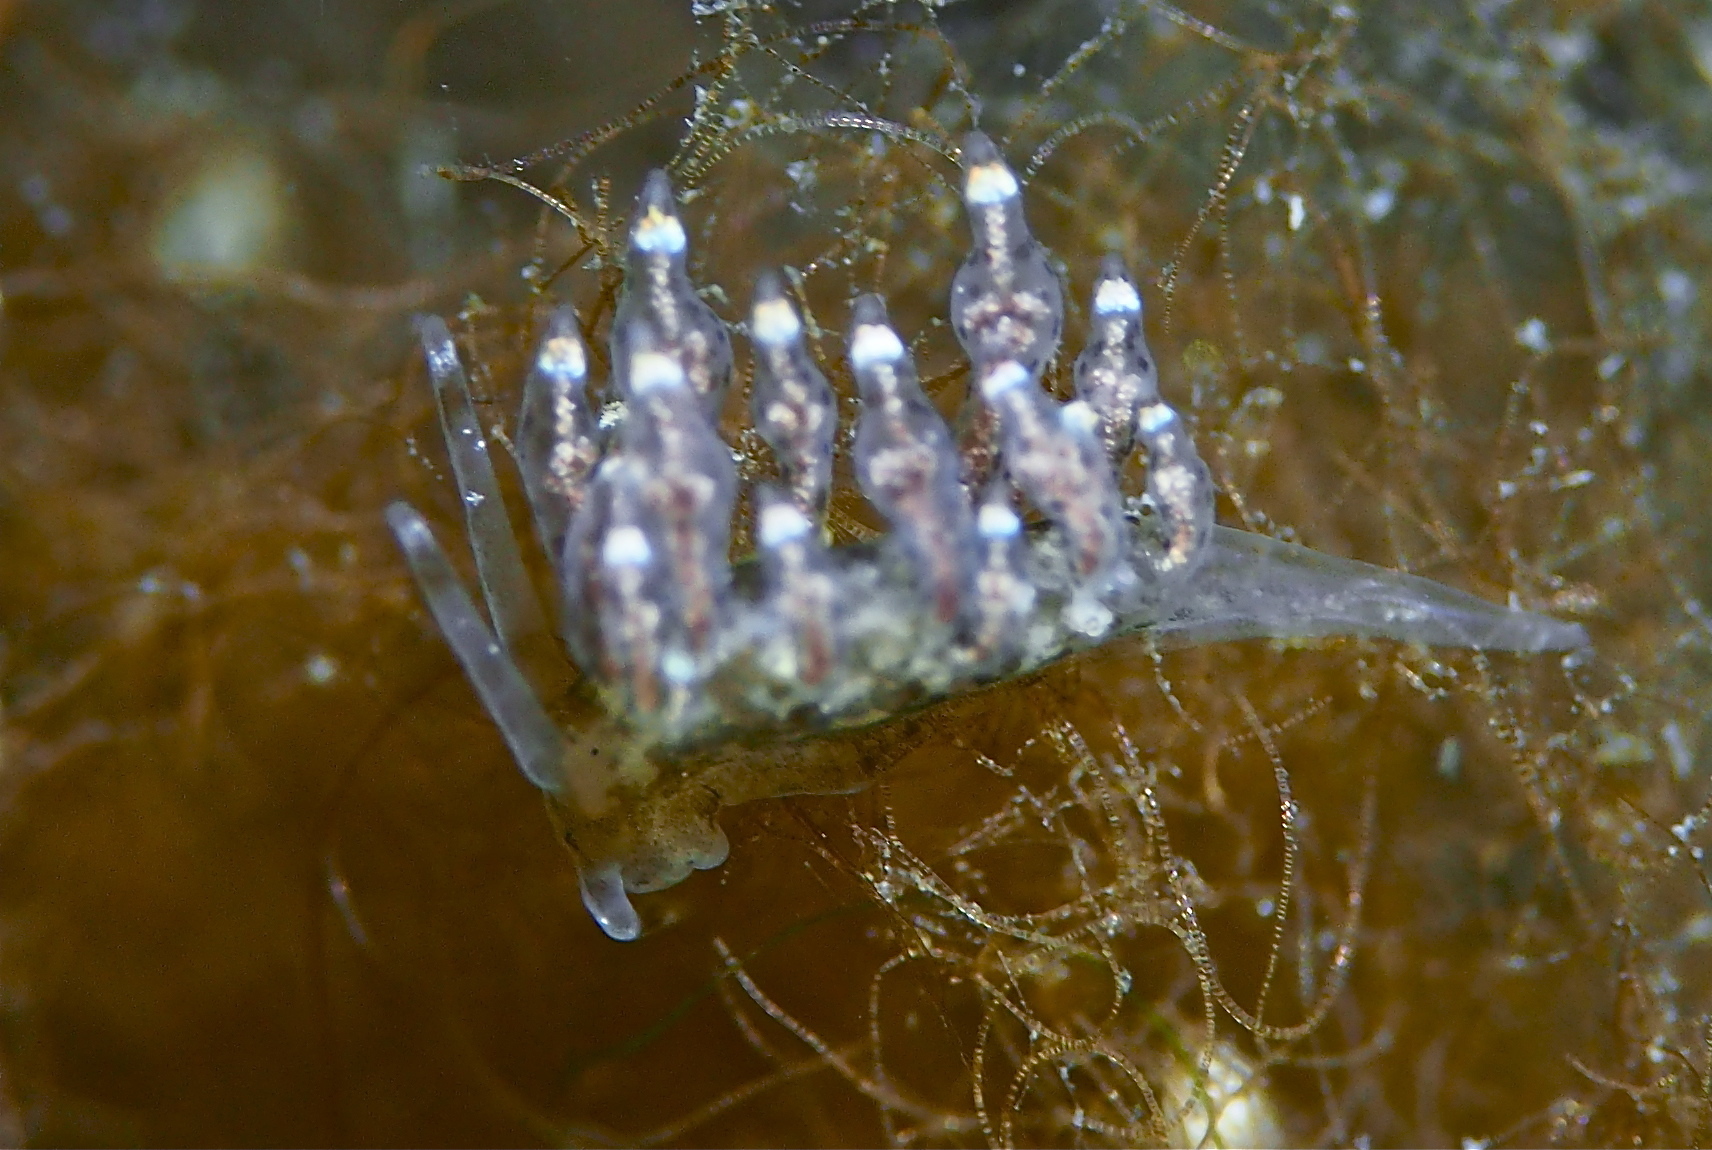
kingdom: Animalia
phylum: Mollusca
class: Gastropoda
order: Nudibranchia
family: Eubranchidae
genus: Eubranchus
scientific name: Eubranchus exiguus
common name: Balloon aeolis
